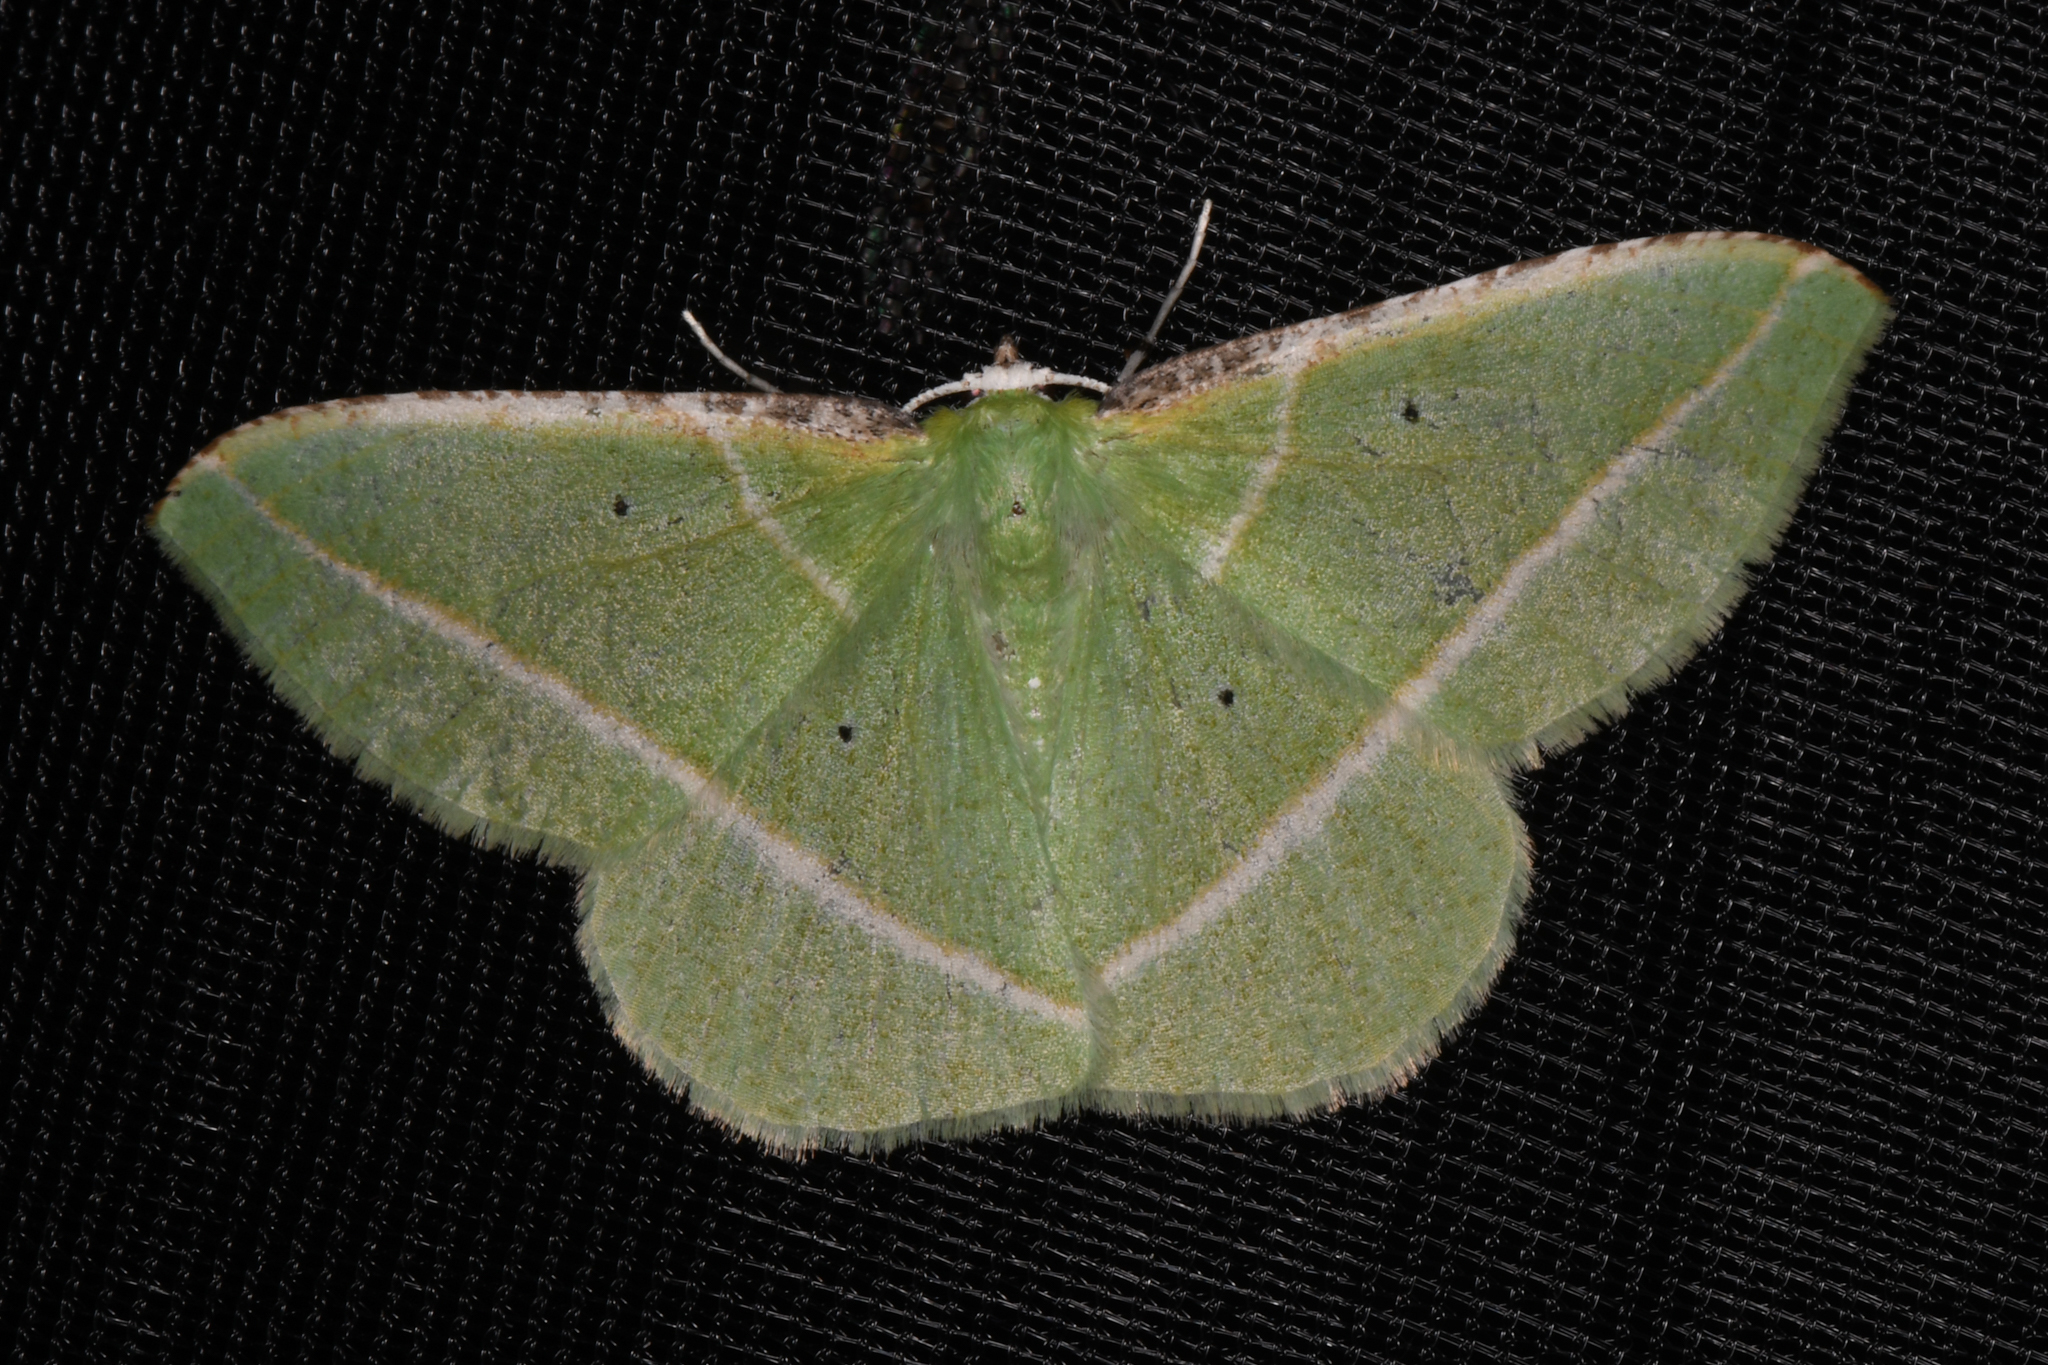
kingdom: Animalia
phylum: Arthropoda
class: Insecta
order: Lepidoptera
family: Geometridae
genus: Dichorda
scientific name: Dichorda illustraria
